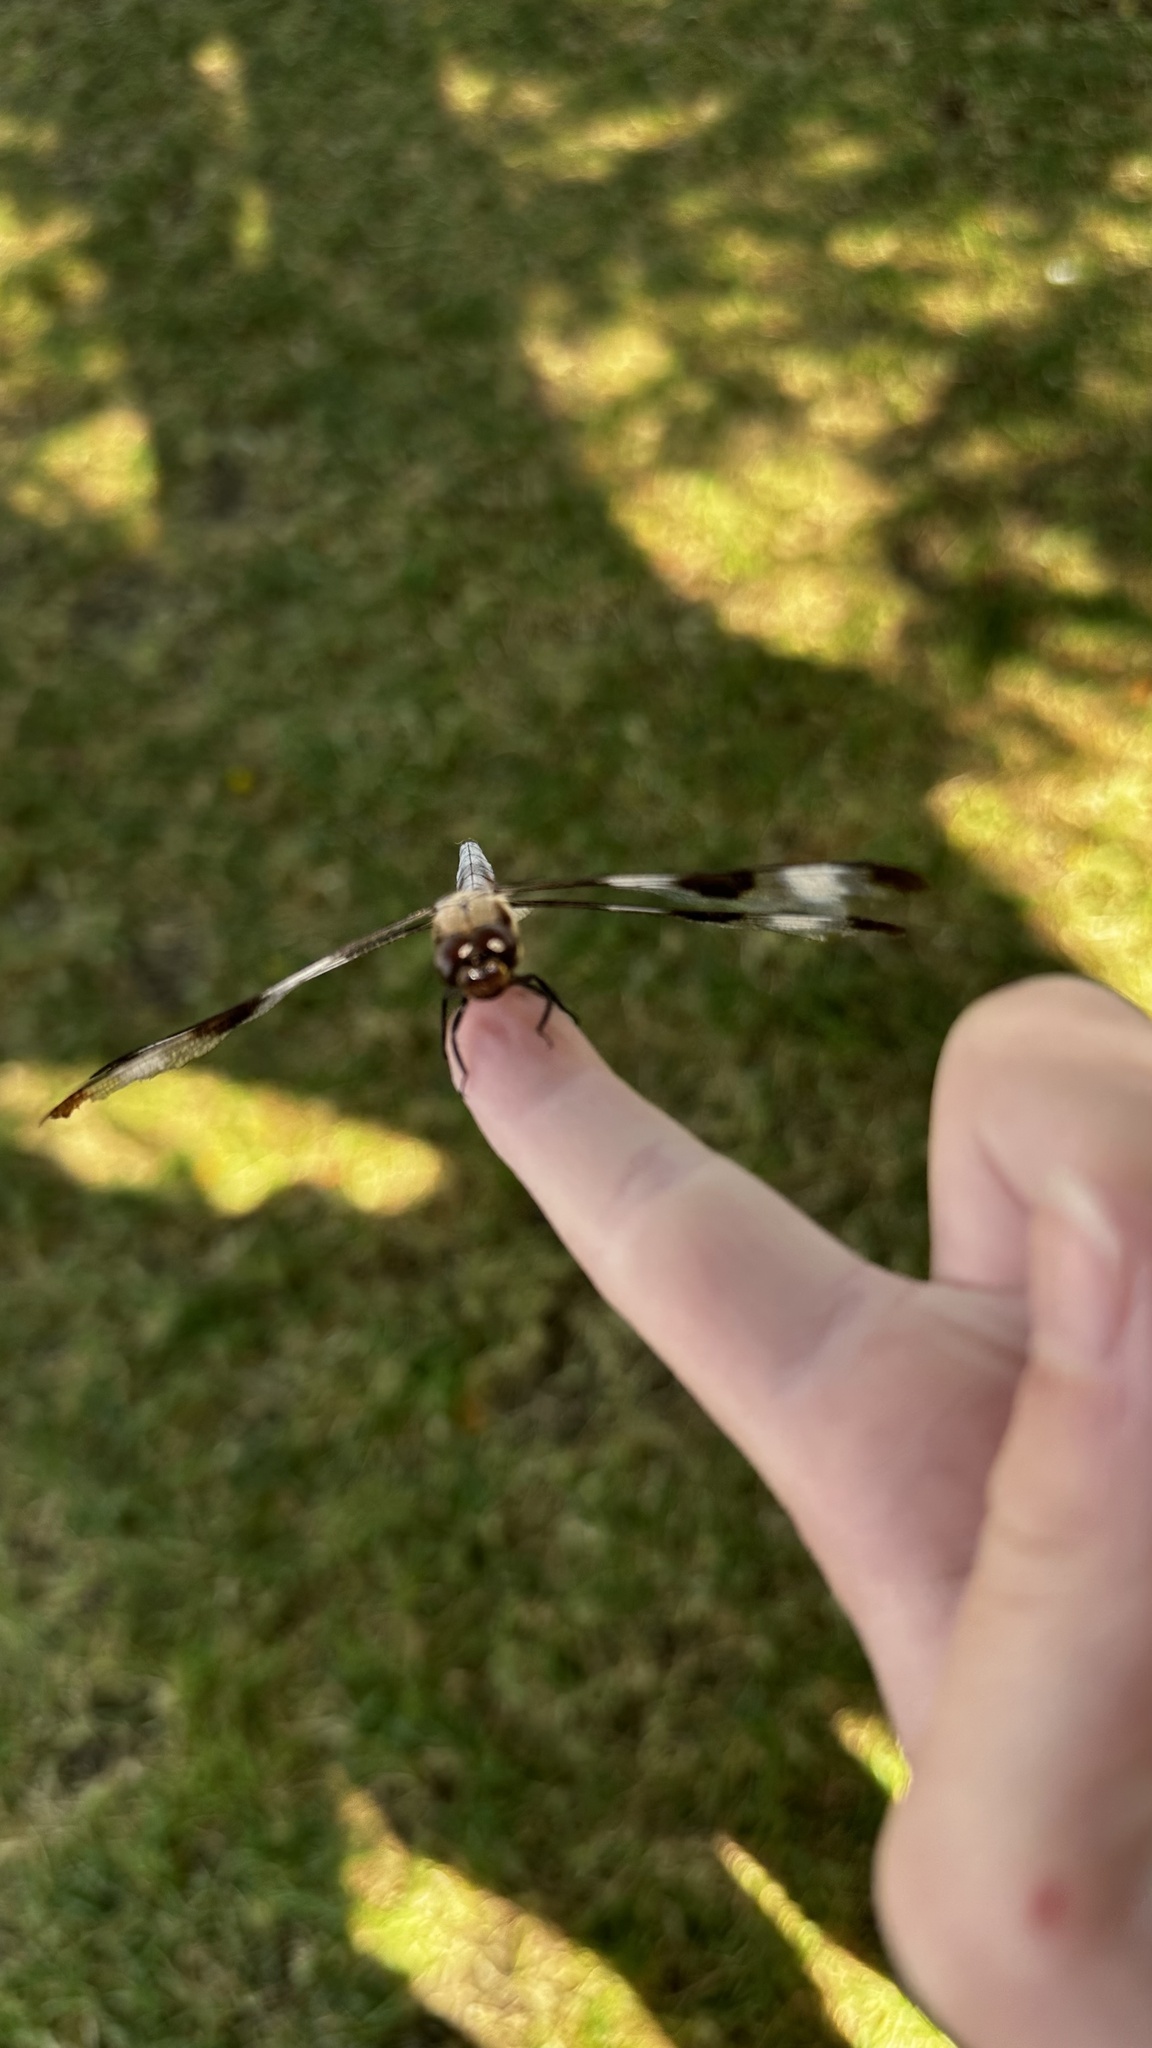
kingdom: Animalia
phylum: Arthropoda
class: Insecta
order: Odonata
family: Libellulidae
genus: Libellula
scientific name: Libellula pulchella
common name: Twelve-spotted skimmer
